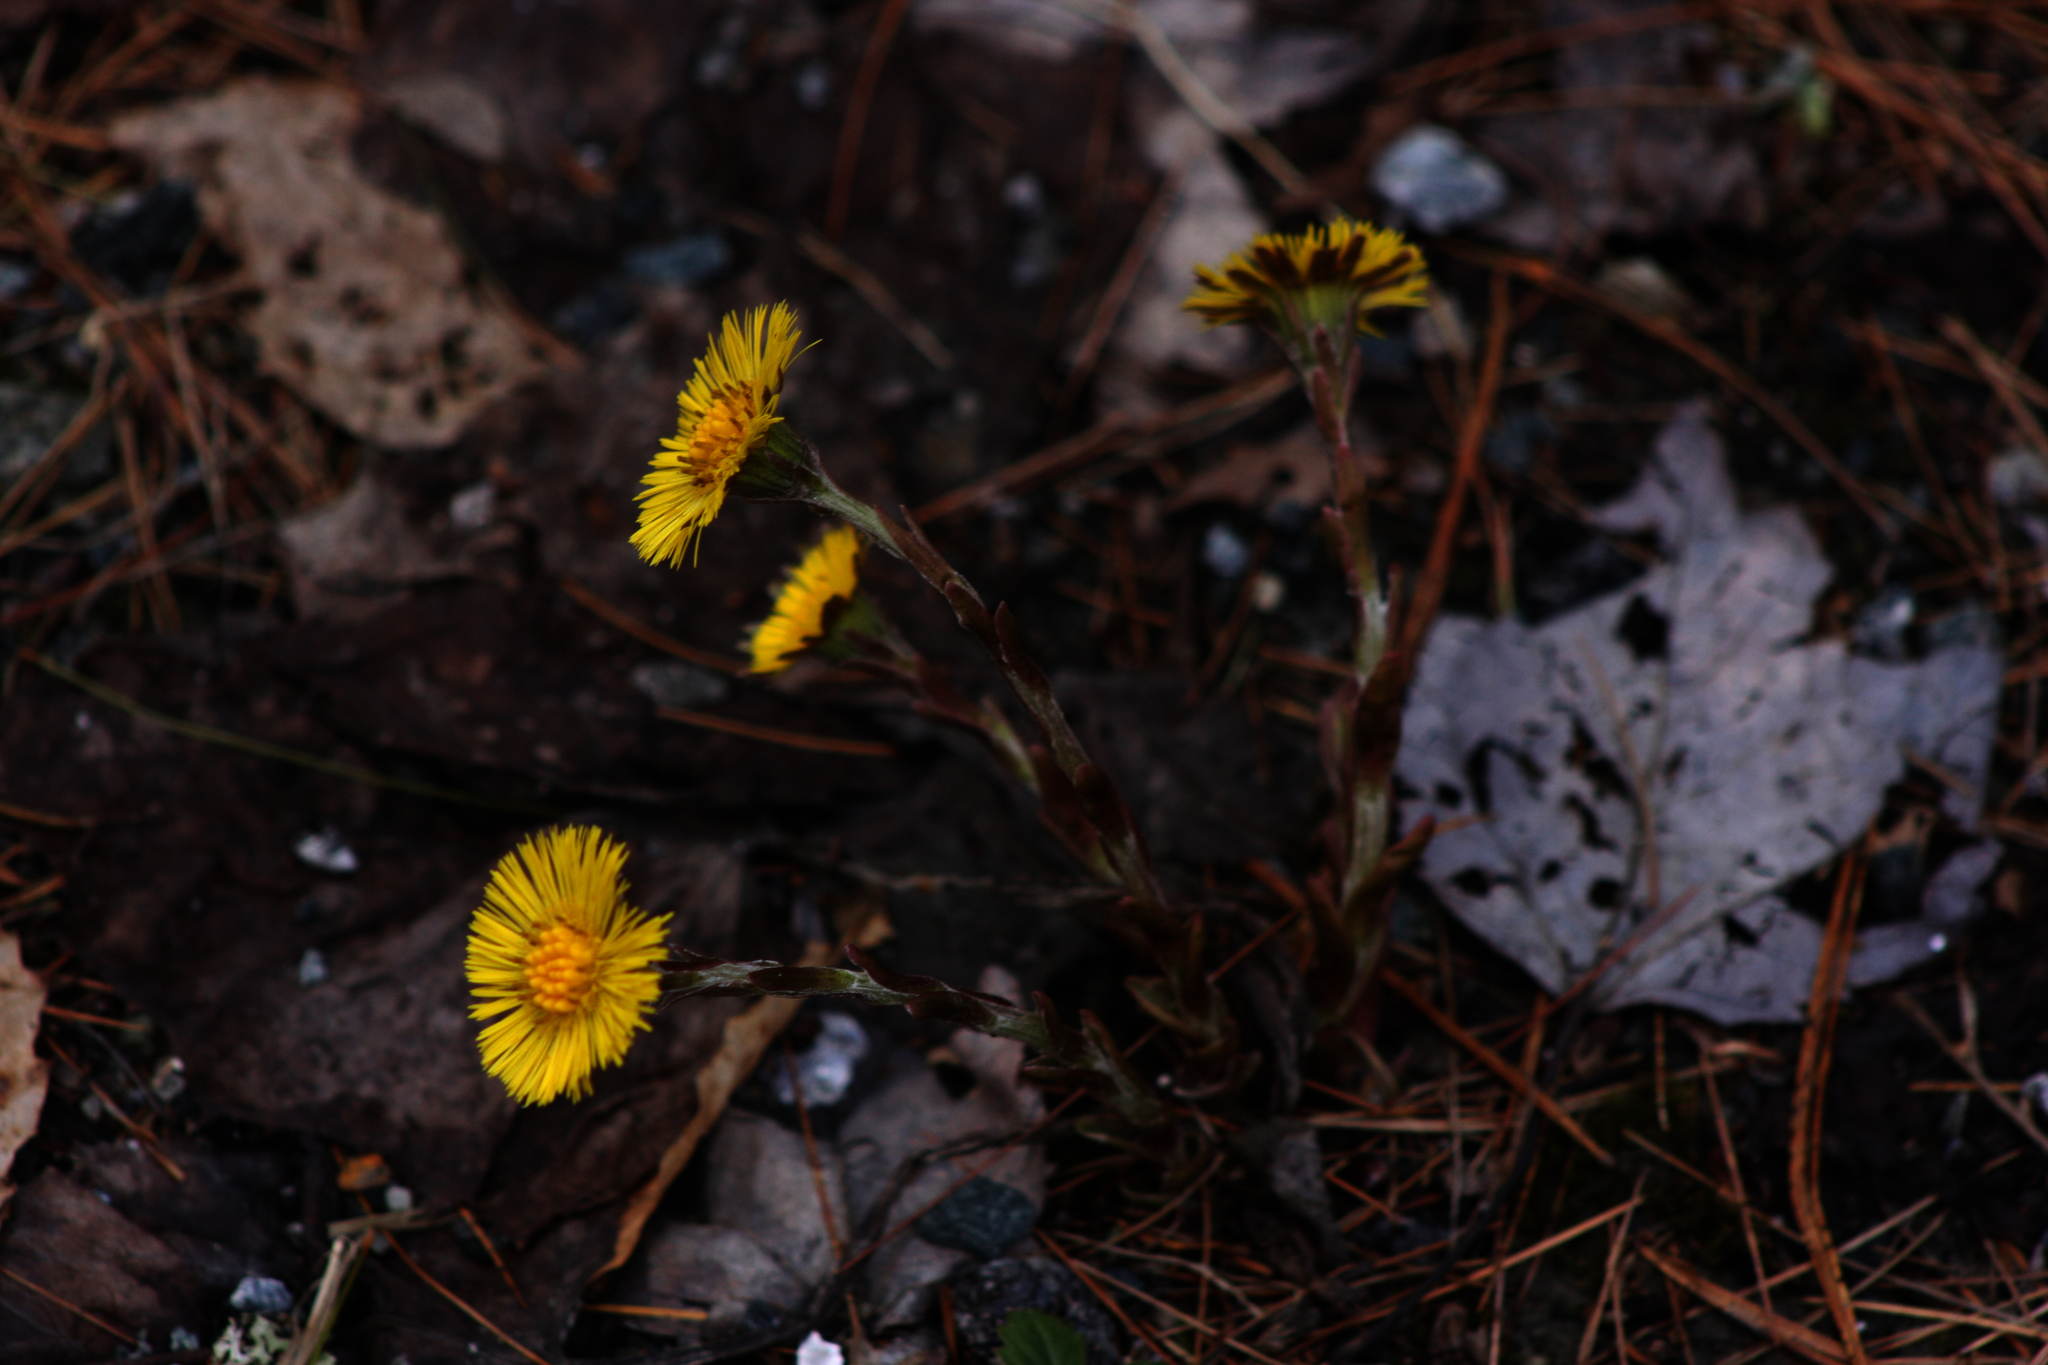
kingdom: Plantae
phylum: Tracheophyta
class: Magnoliopsida
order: Asterales
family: Asteraceae
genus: Tussilago
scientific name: Tussilago farfara
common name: Coltsfoot
